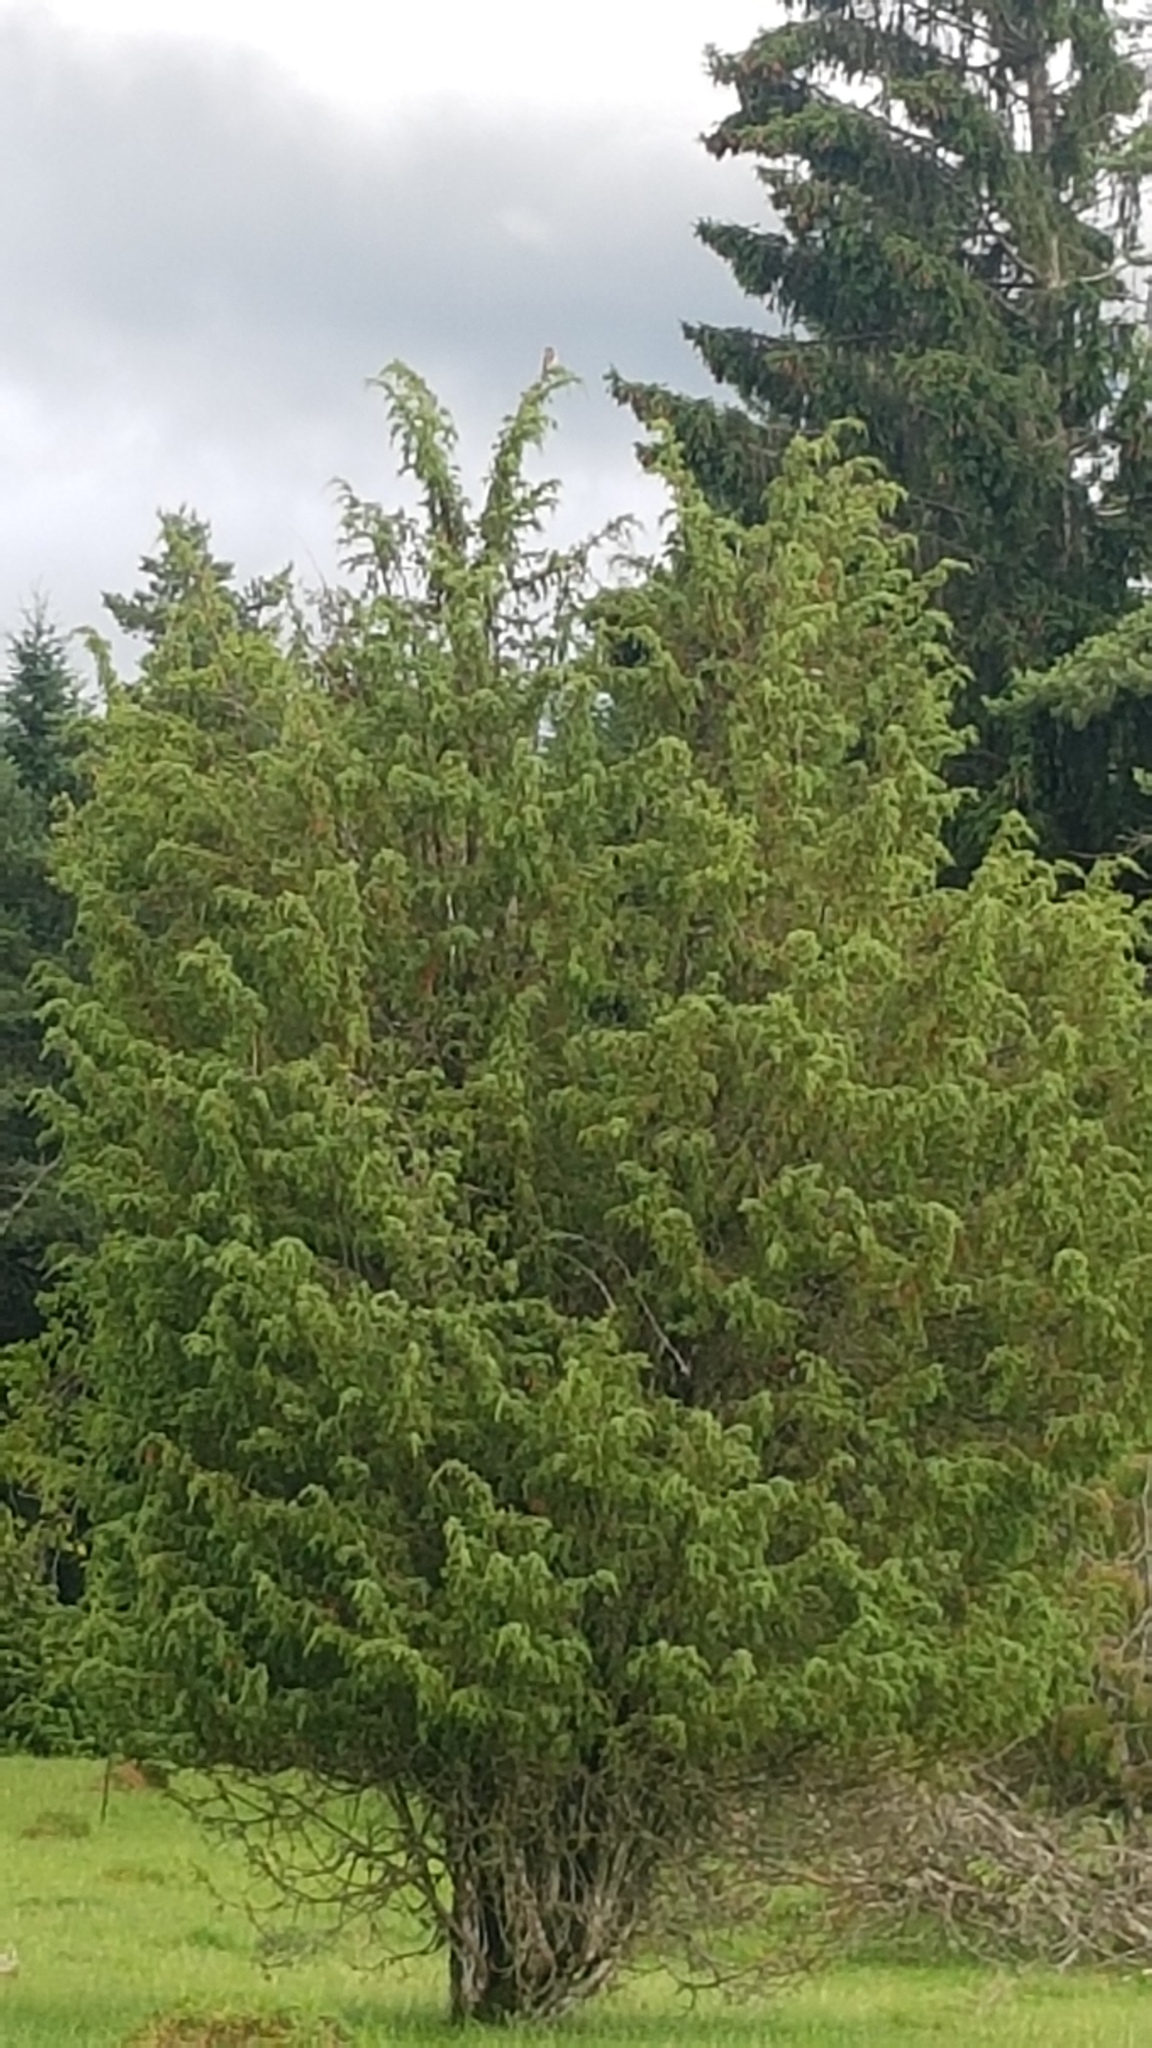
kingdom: Plantae
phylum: Tracheophyta
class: Pinopsida
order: Pinales
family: Cupressaceae
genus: Juniperus
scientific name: Juniperus communis
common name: Common juniper
